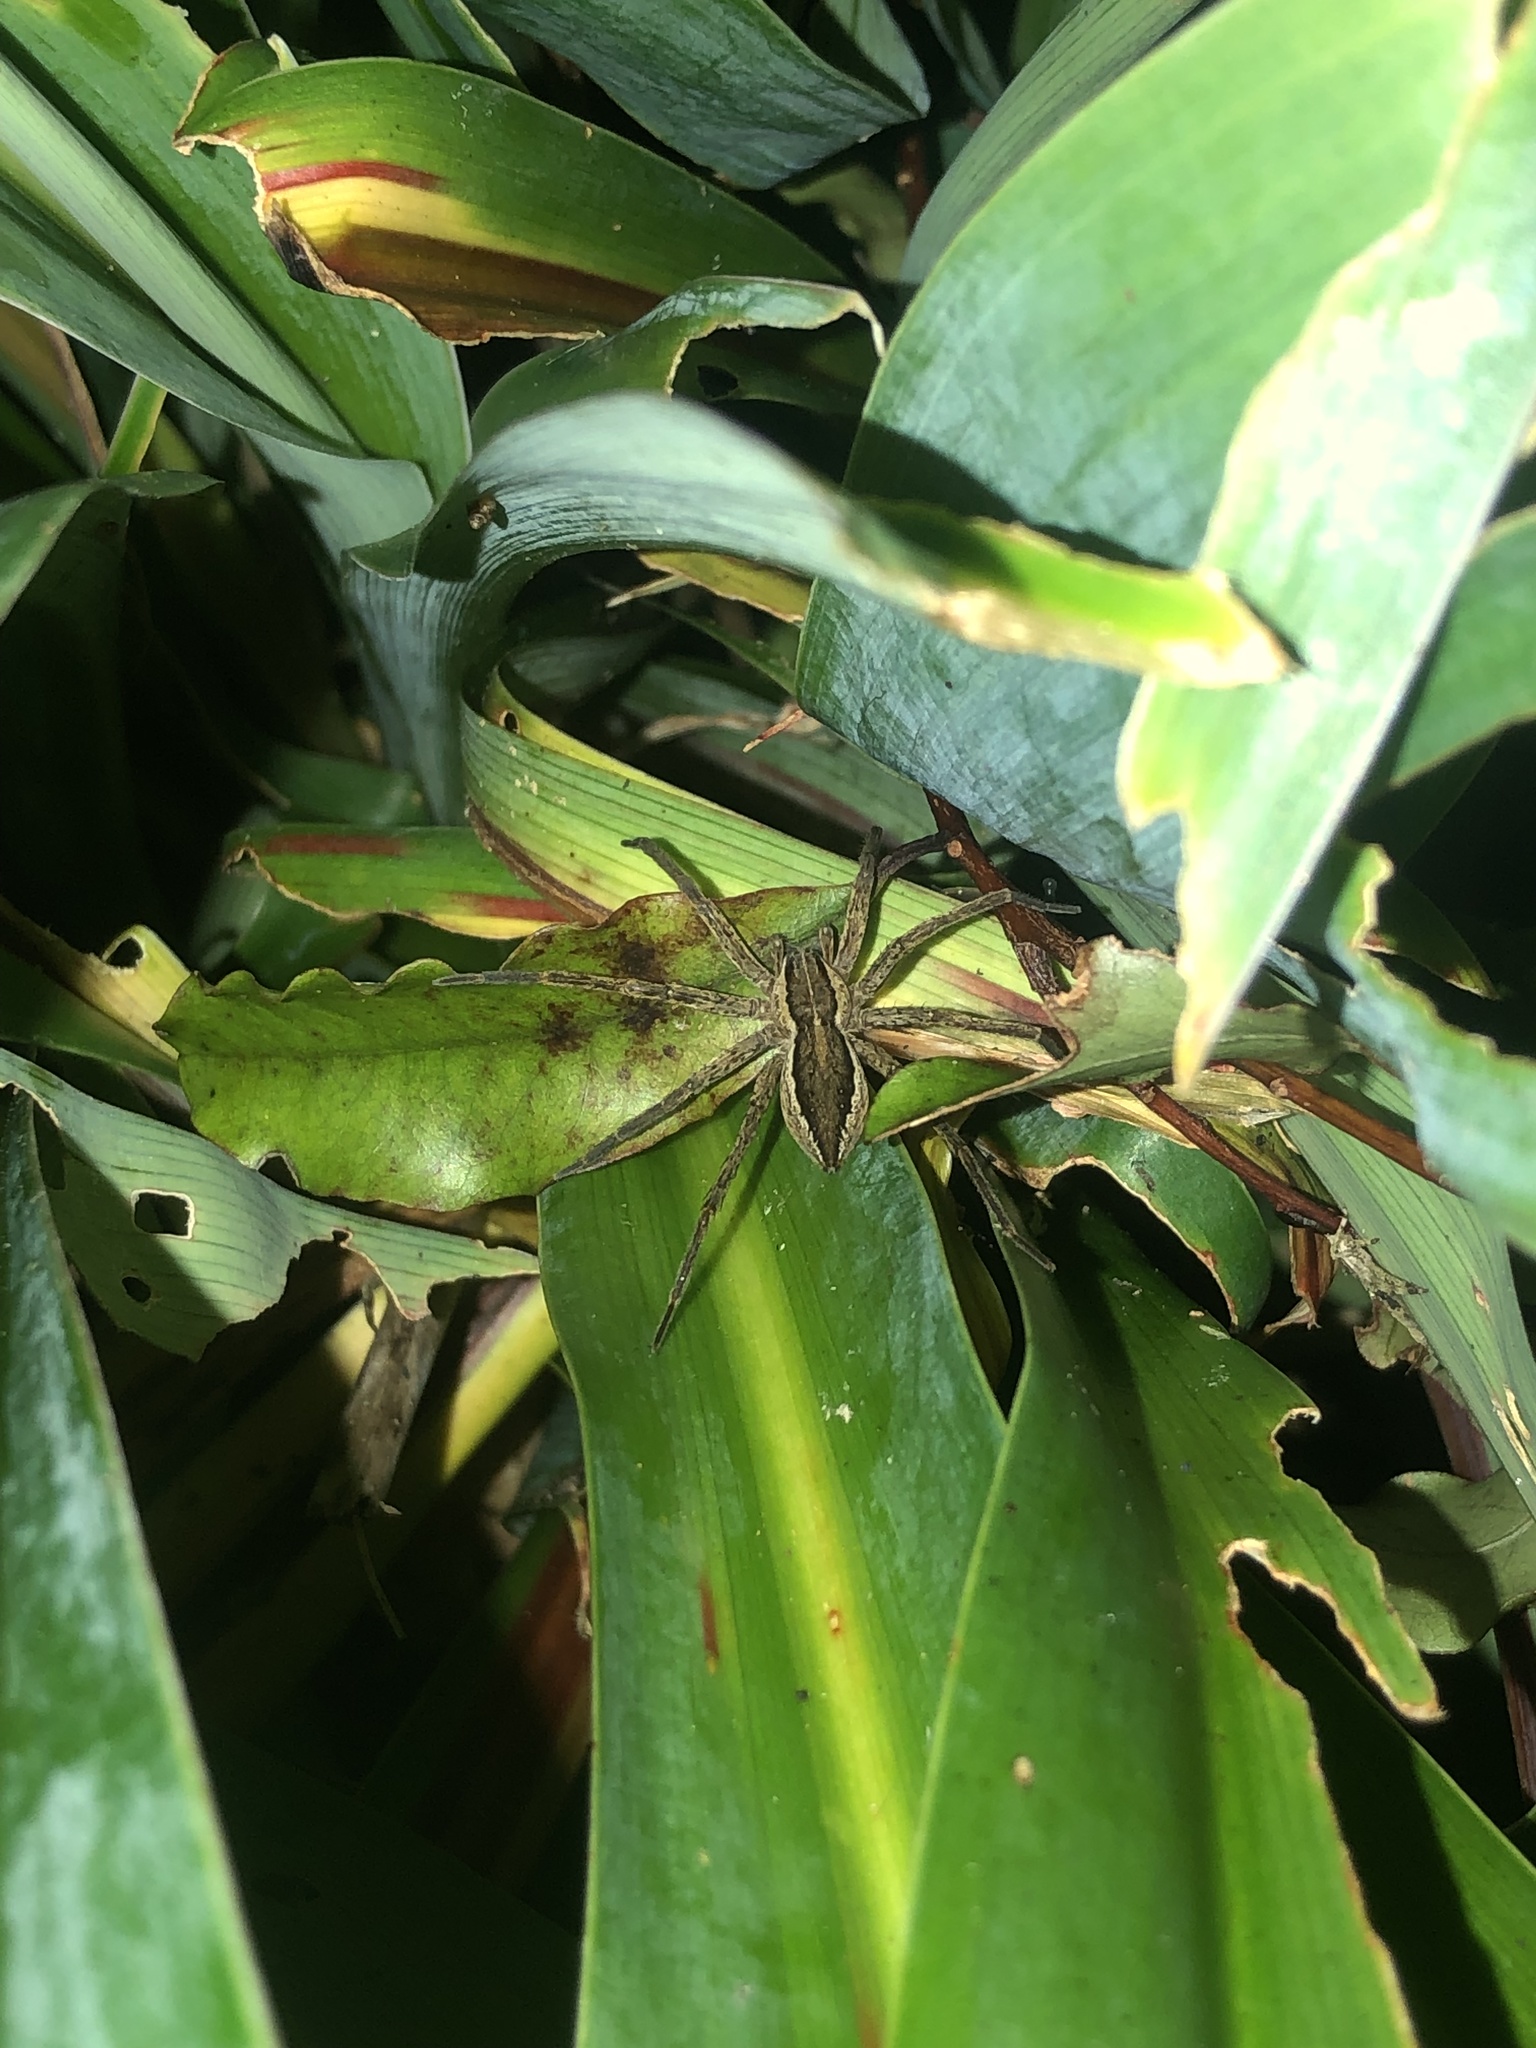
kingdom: Animalia
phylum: Arthropoda
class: Arachnida
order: Araneae
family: Pisauridae
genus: Dolomedes
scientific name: Dolomedes minor
